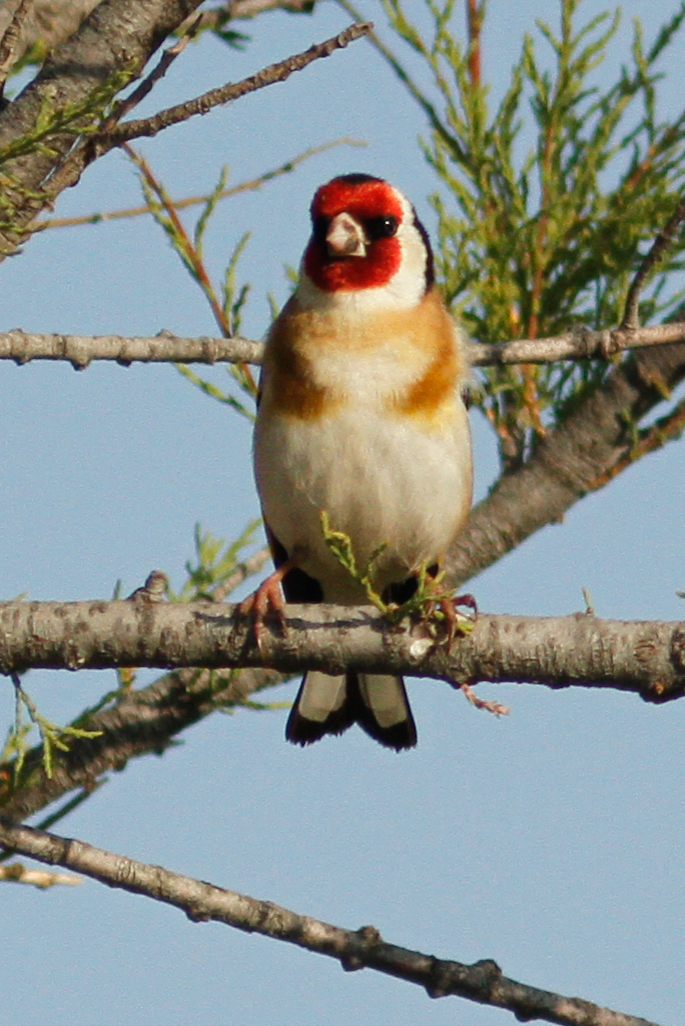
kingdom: Animalia
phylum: Chordata
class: Aves
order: Passeriformes
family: Fringillidae
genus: Carduelis
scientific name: Carduelis carduelis
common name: European goldfinch
